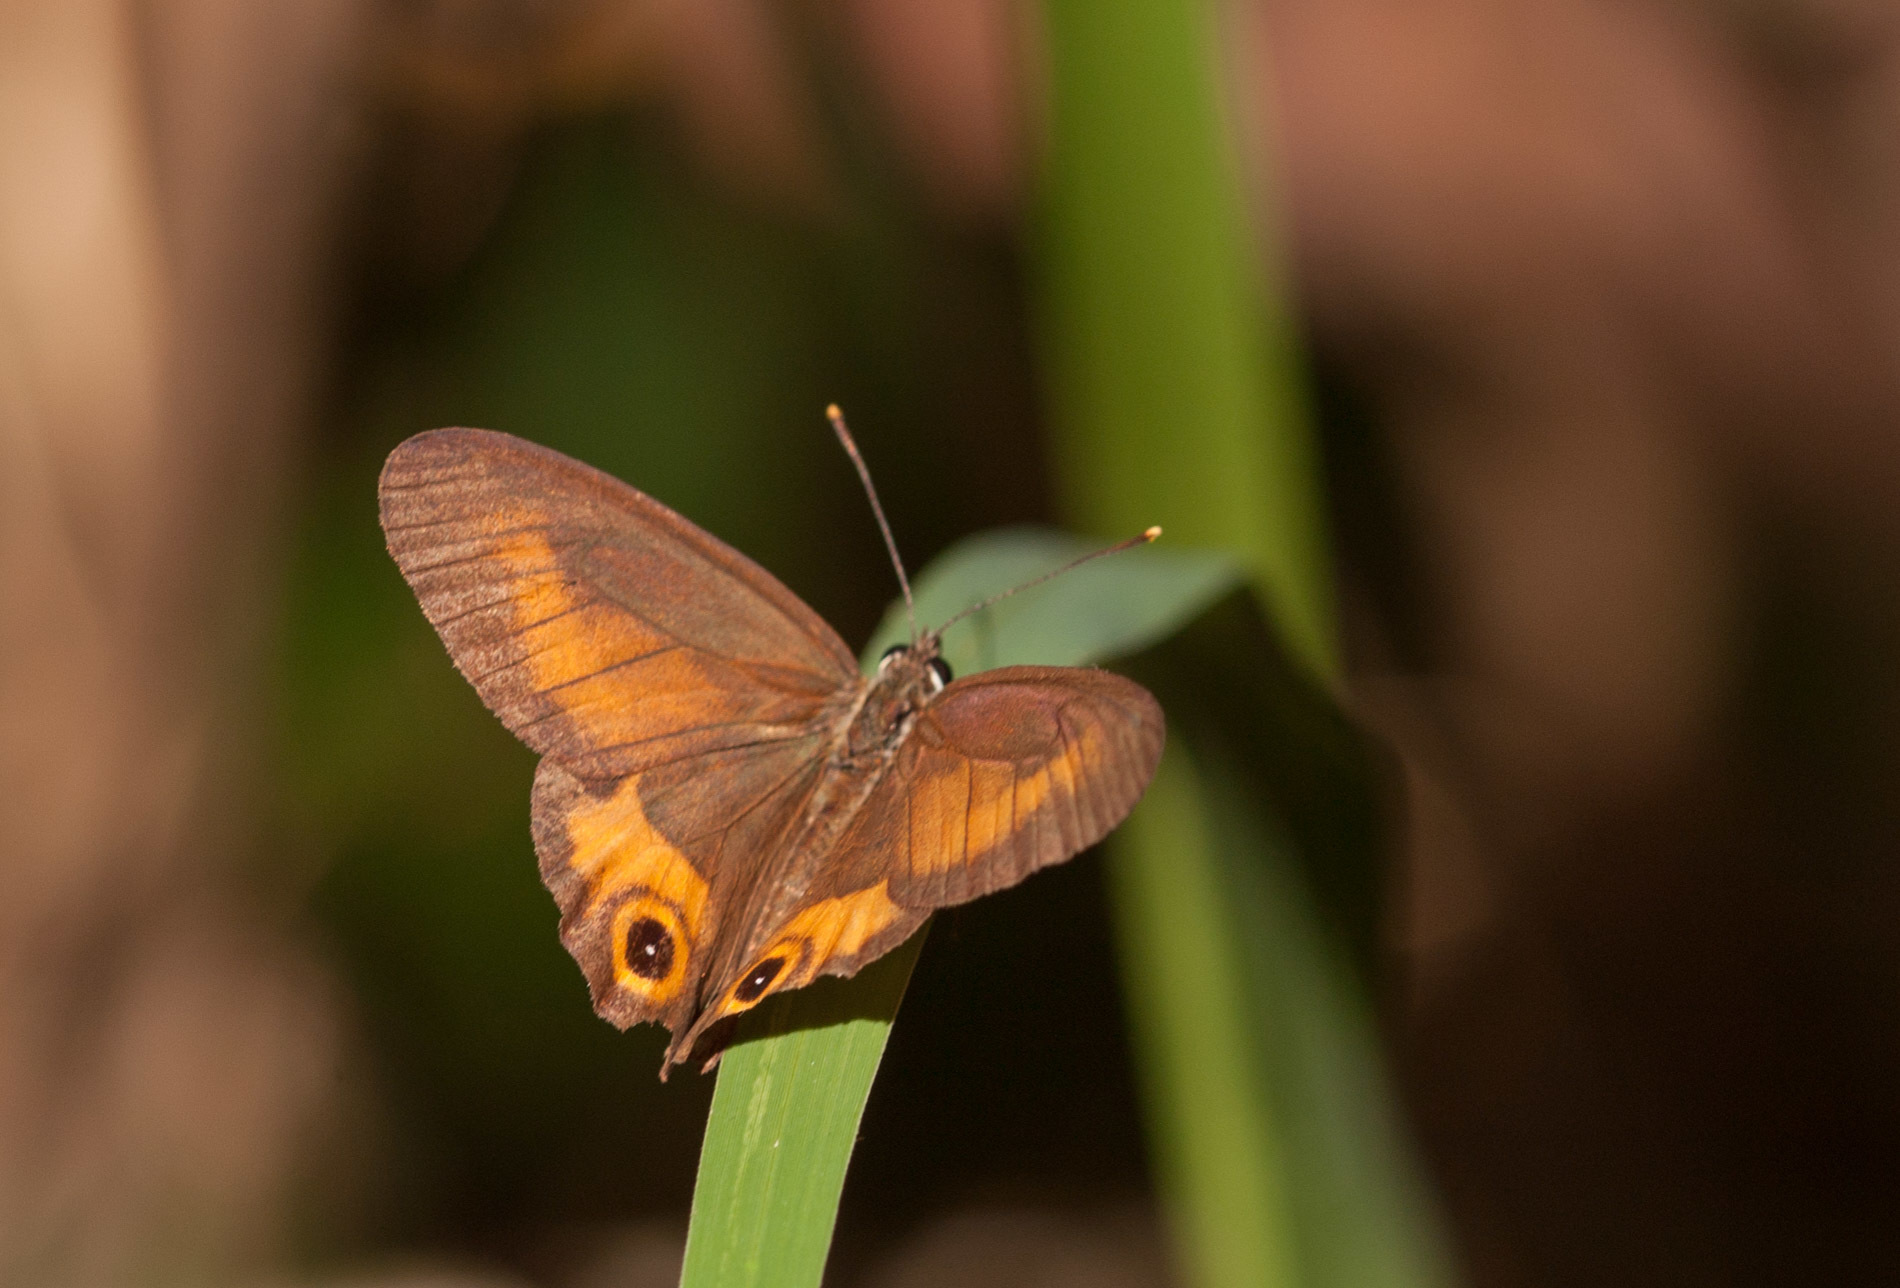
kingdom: Animalia
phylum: Arthropoda
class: Insecta
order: Lepidoptera
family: Nymphalidae
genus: Hypocysta
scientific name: Hypocysta irius
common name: Orange-streaked ringlet
